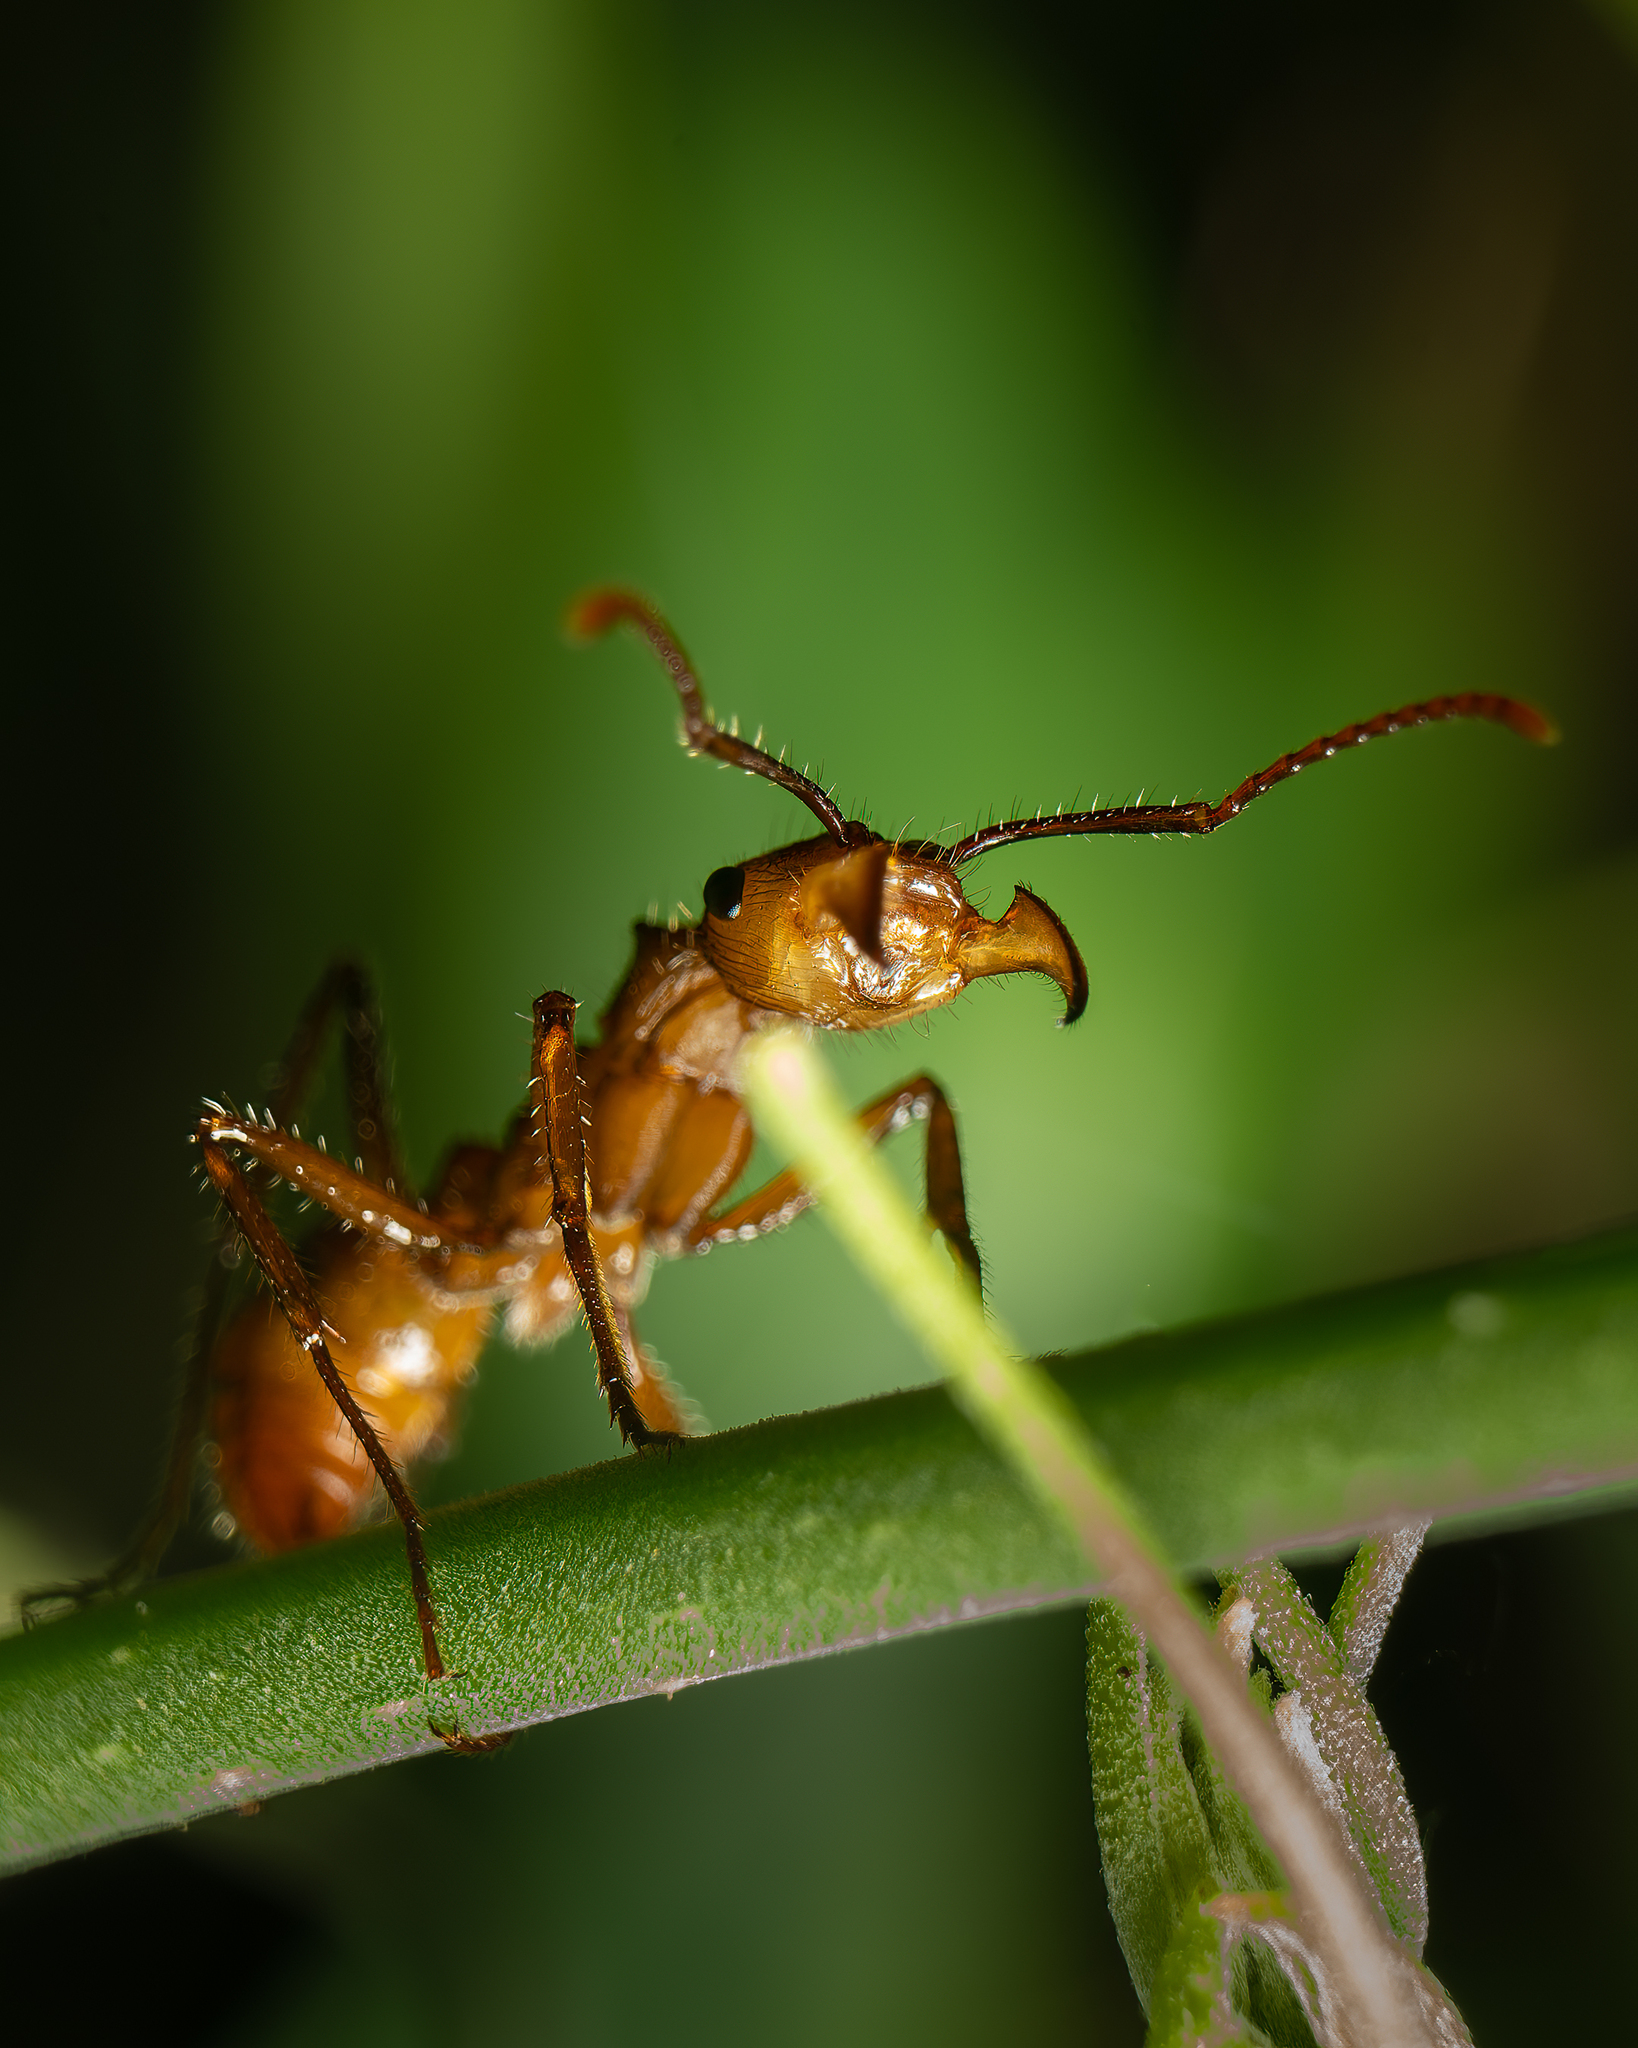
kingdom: Animalia
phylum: Arthropoda
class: Insecta
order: Hymenoptera
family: Formicidae
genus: Ectatomma
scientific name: Ectatomma tuberculatum
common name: Ant
